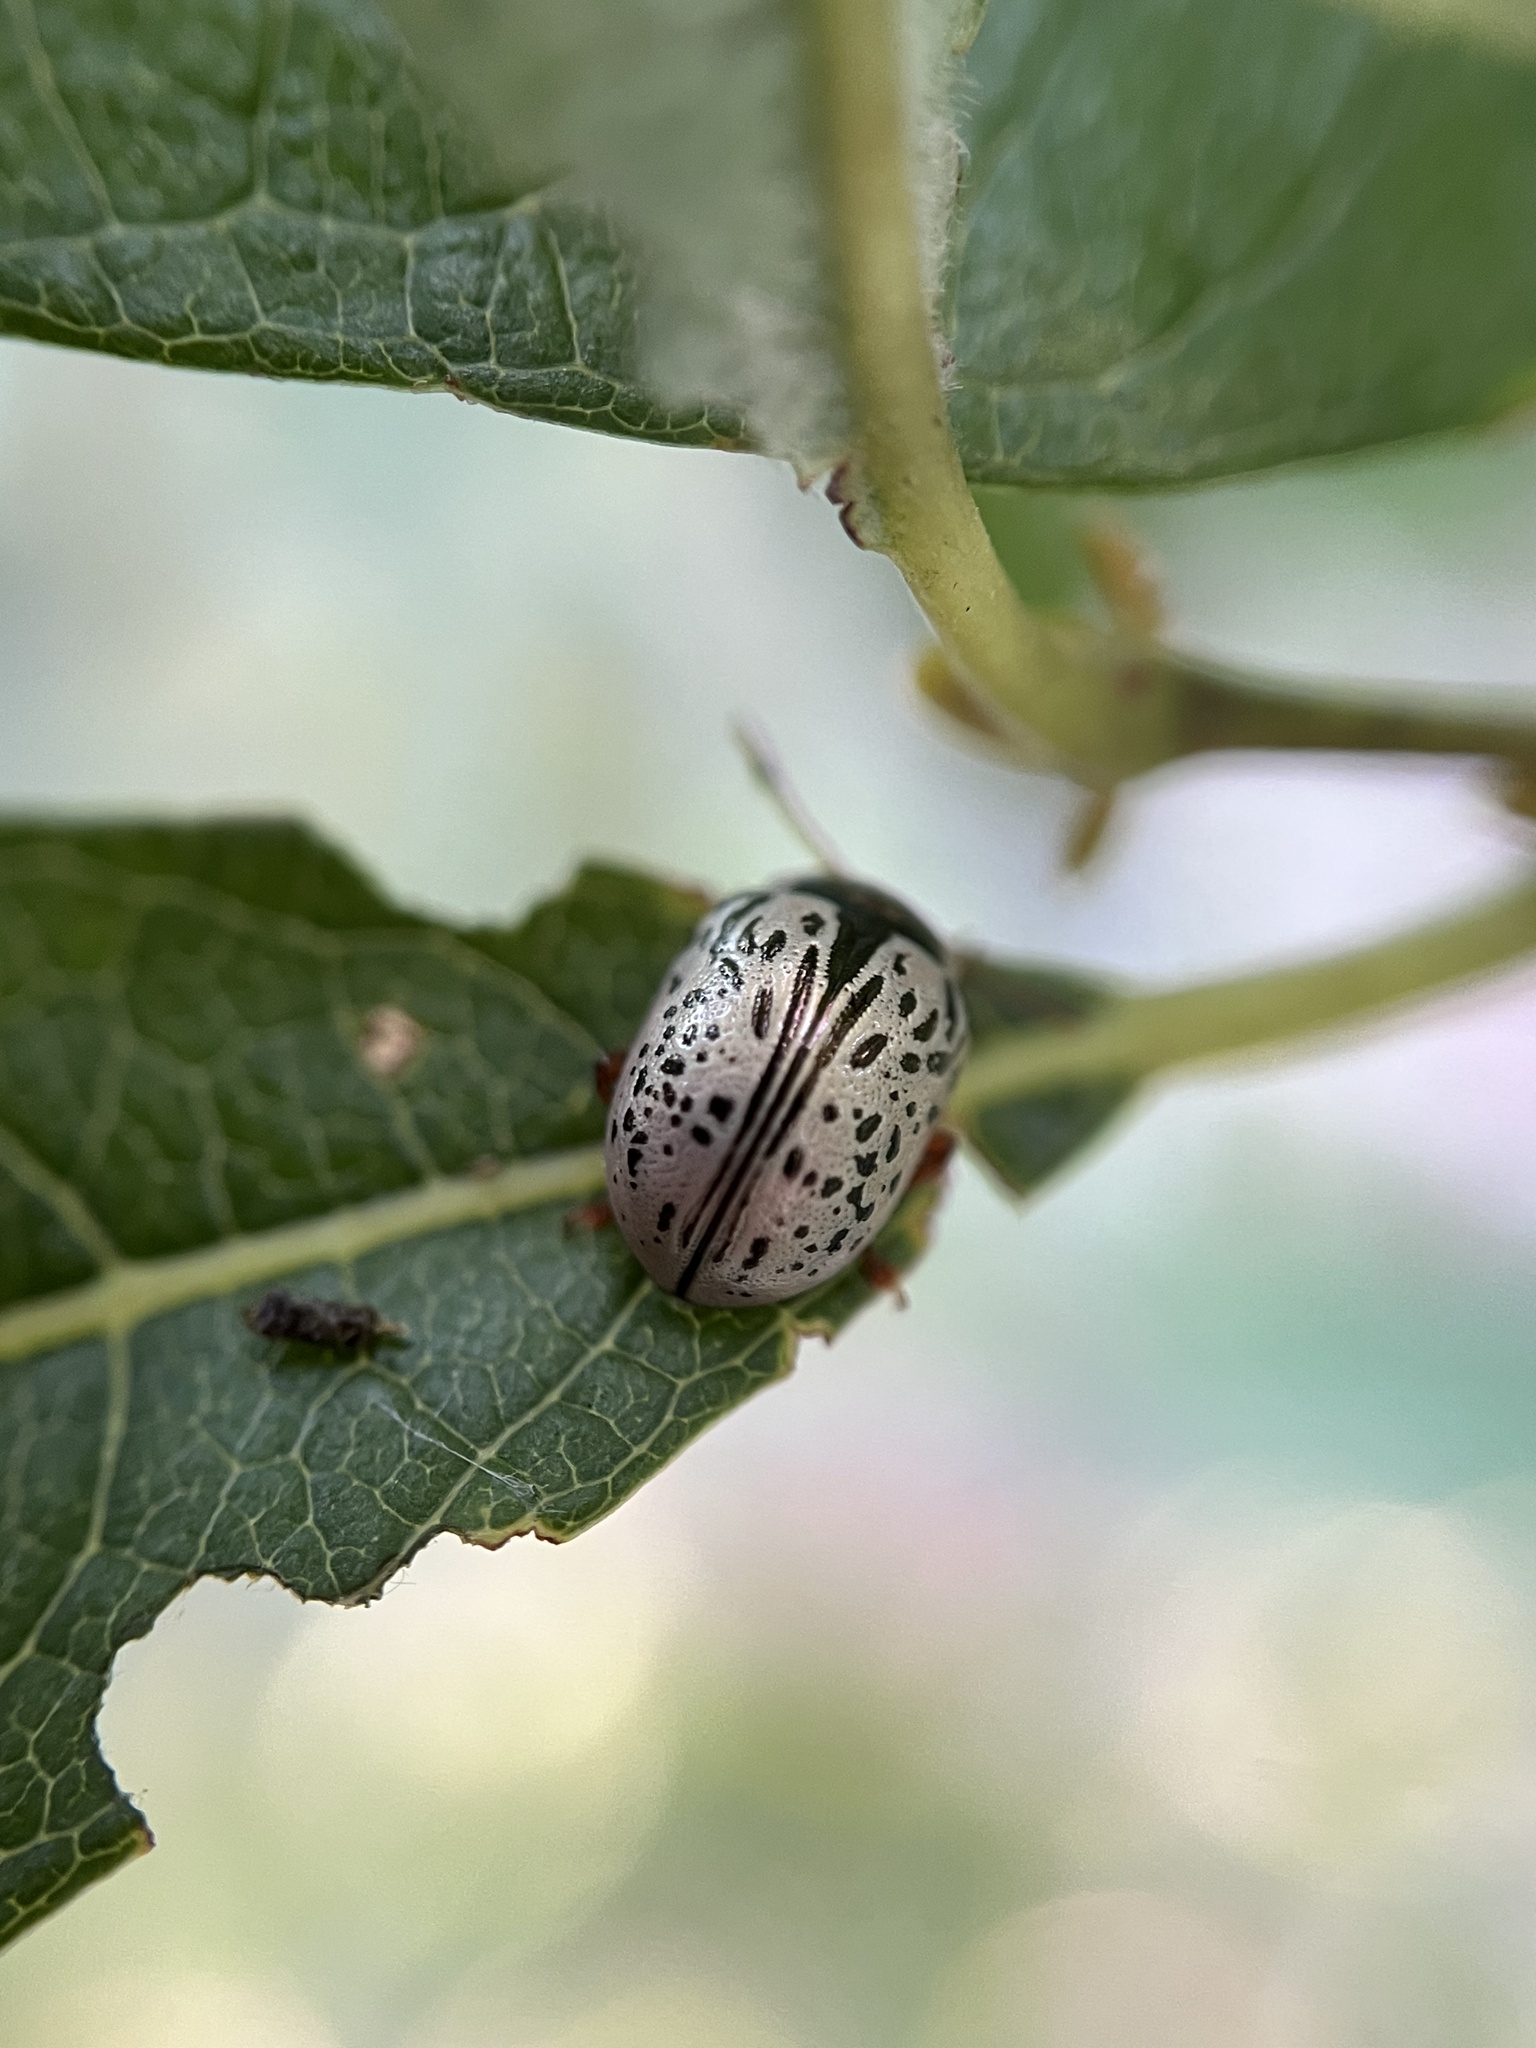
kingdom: Animalia
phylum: Arthropoda
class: Insecta
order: Coleoptera
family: Chrysomelidae
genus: Calligrapha
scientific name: Calligrapha multipunctata
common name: Common willow calligrapher beetle
